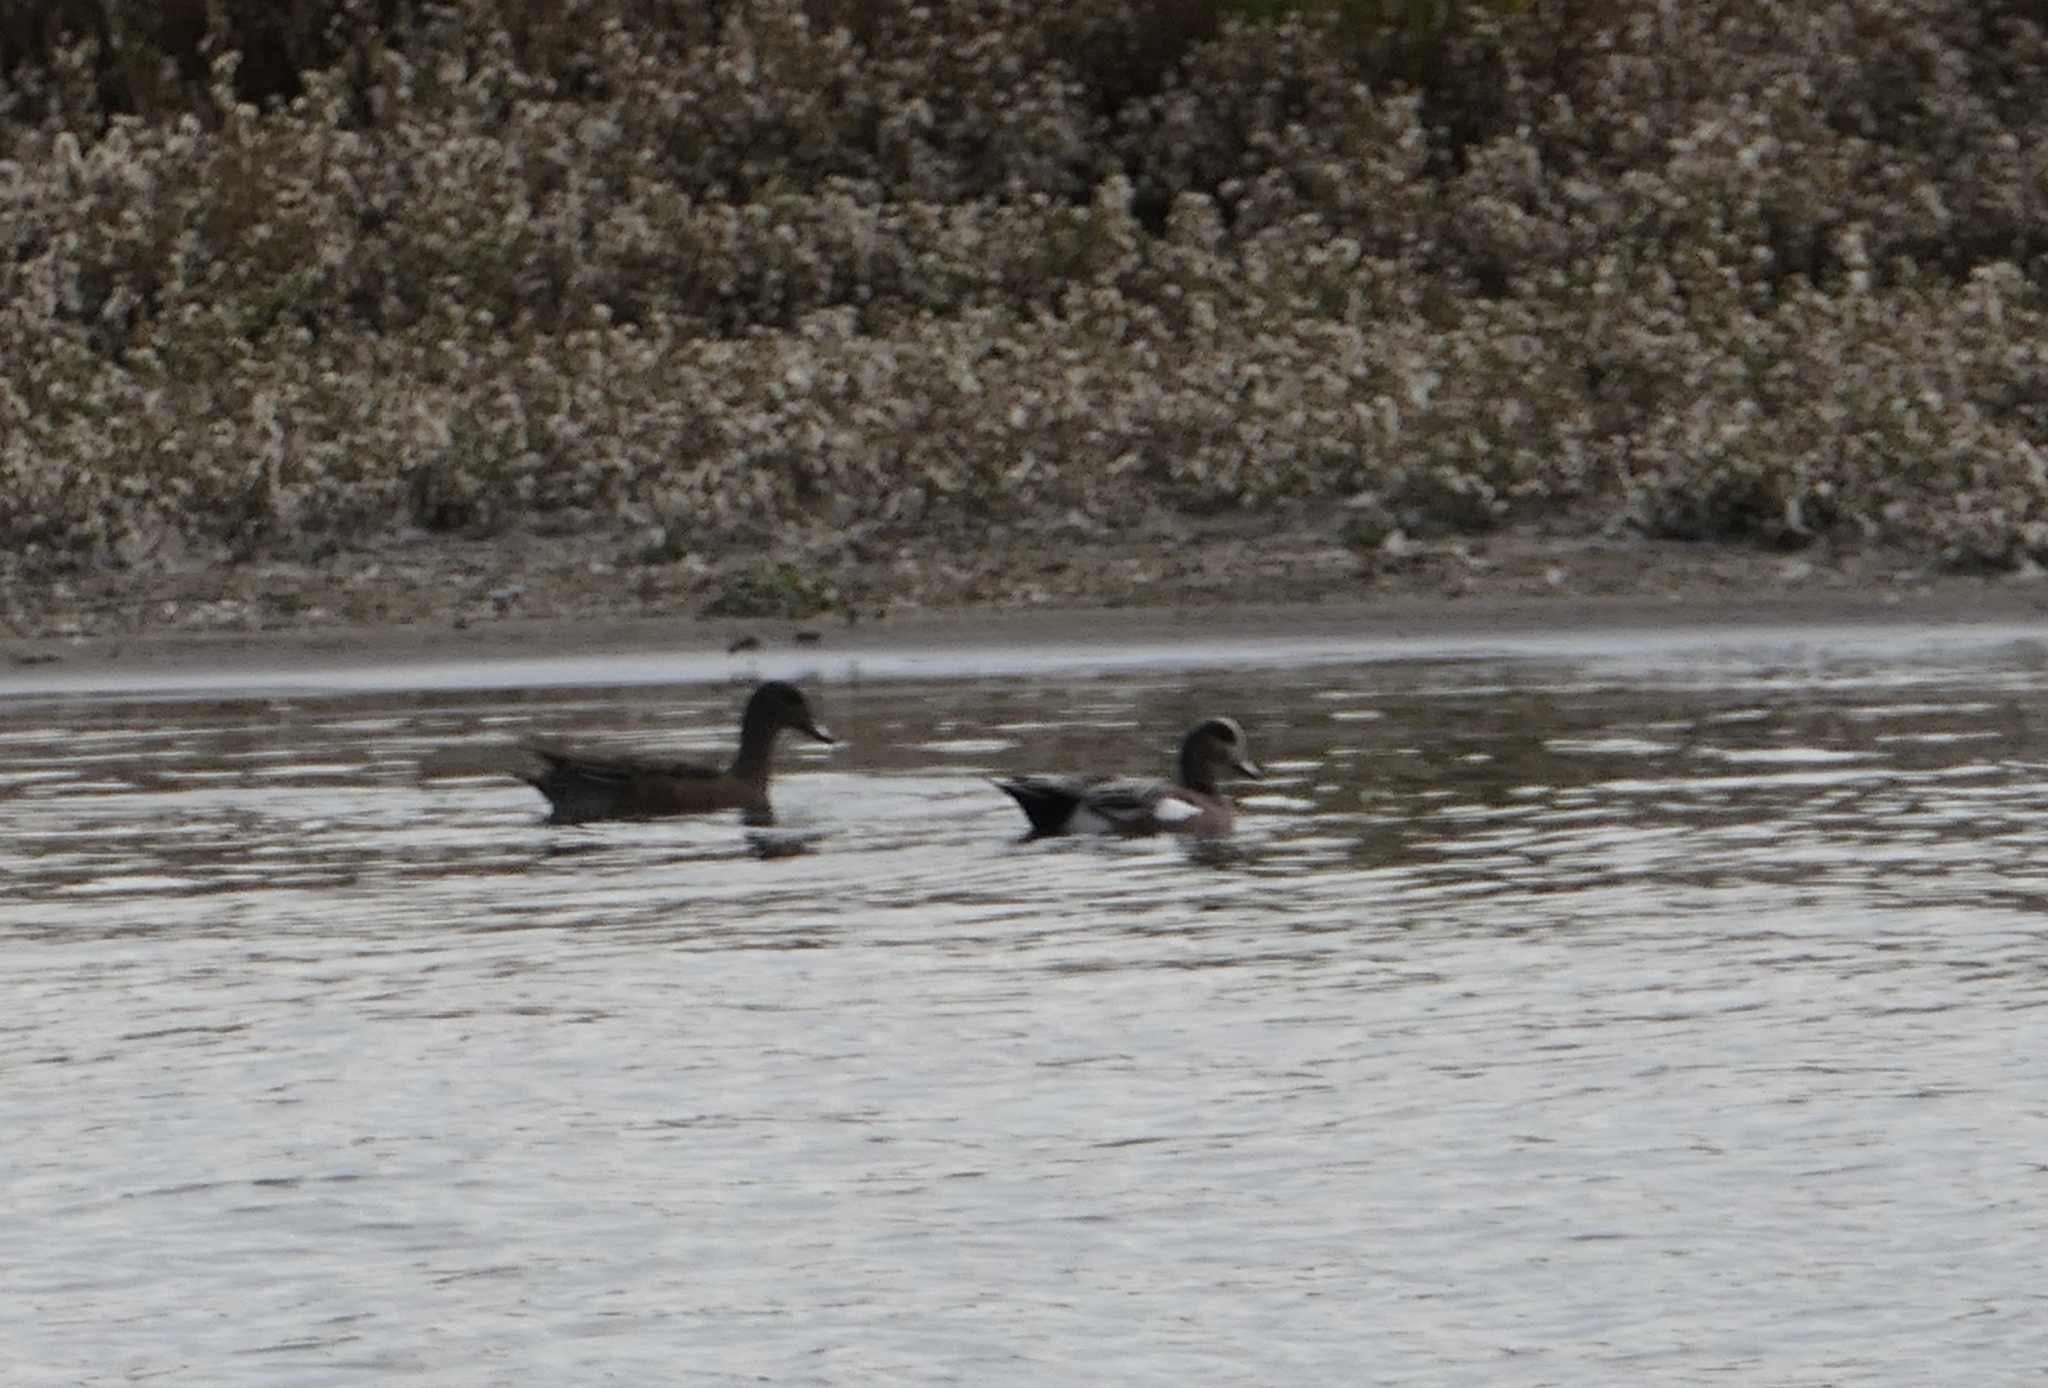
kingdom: Animalia
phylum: Chordata
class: Aves
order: Anseriformes
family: Anatidae
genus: Mareca
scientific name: Mareca americana
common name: American wigeon
